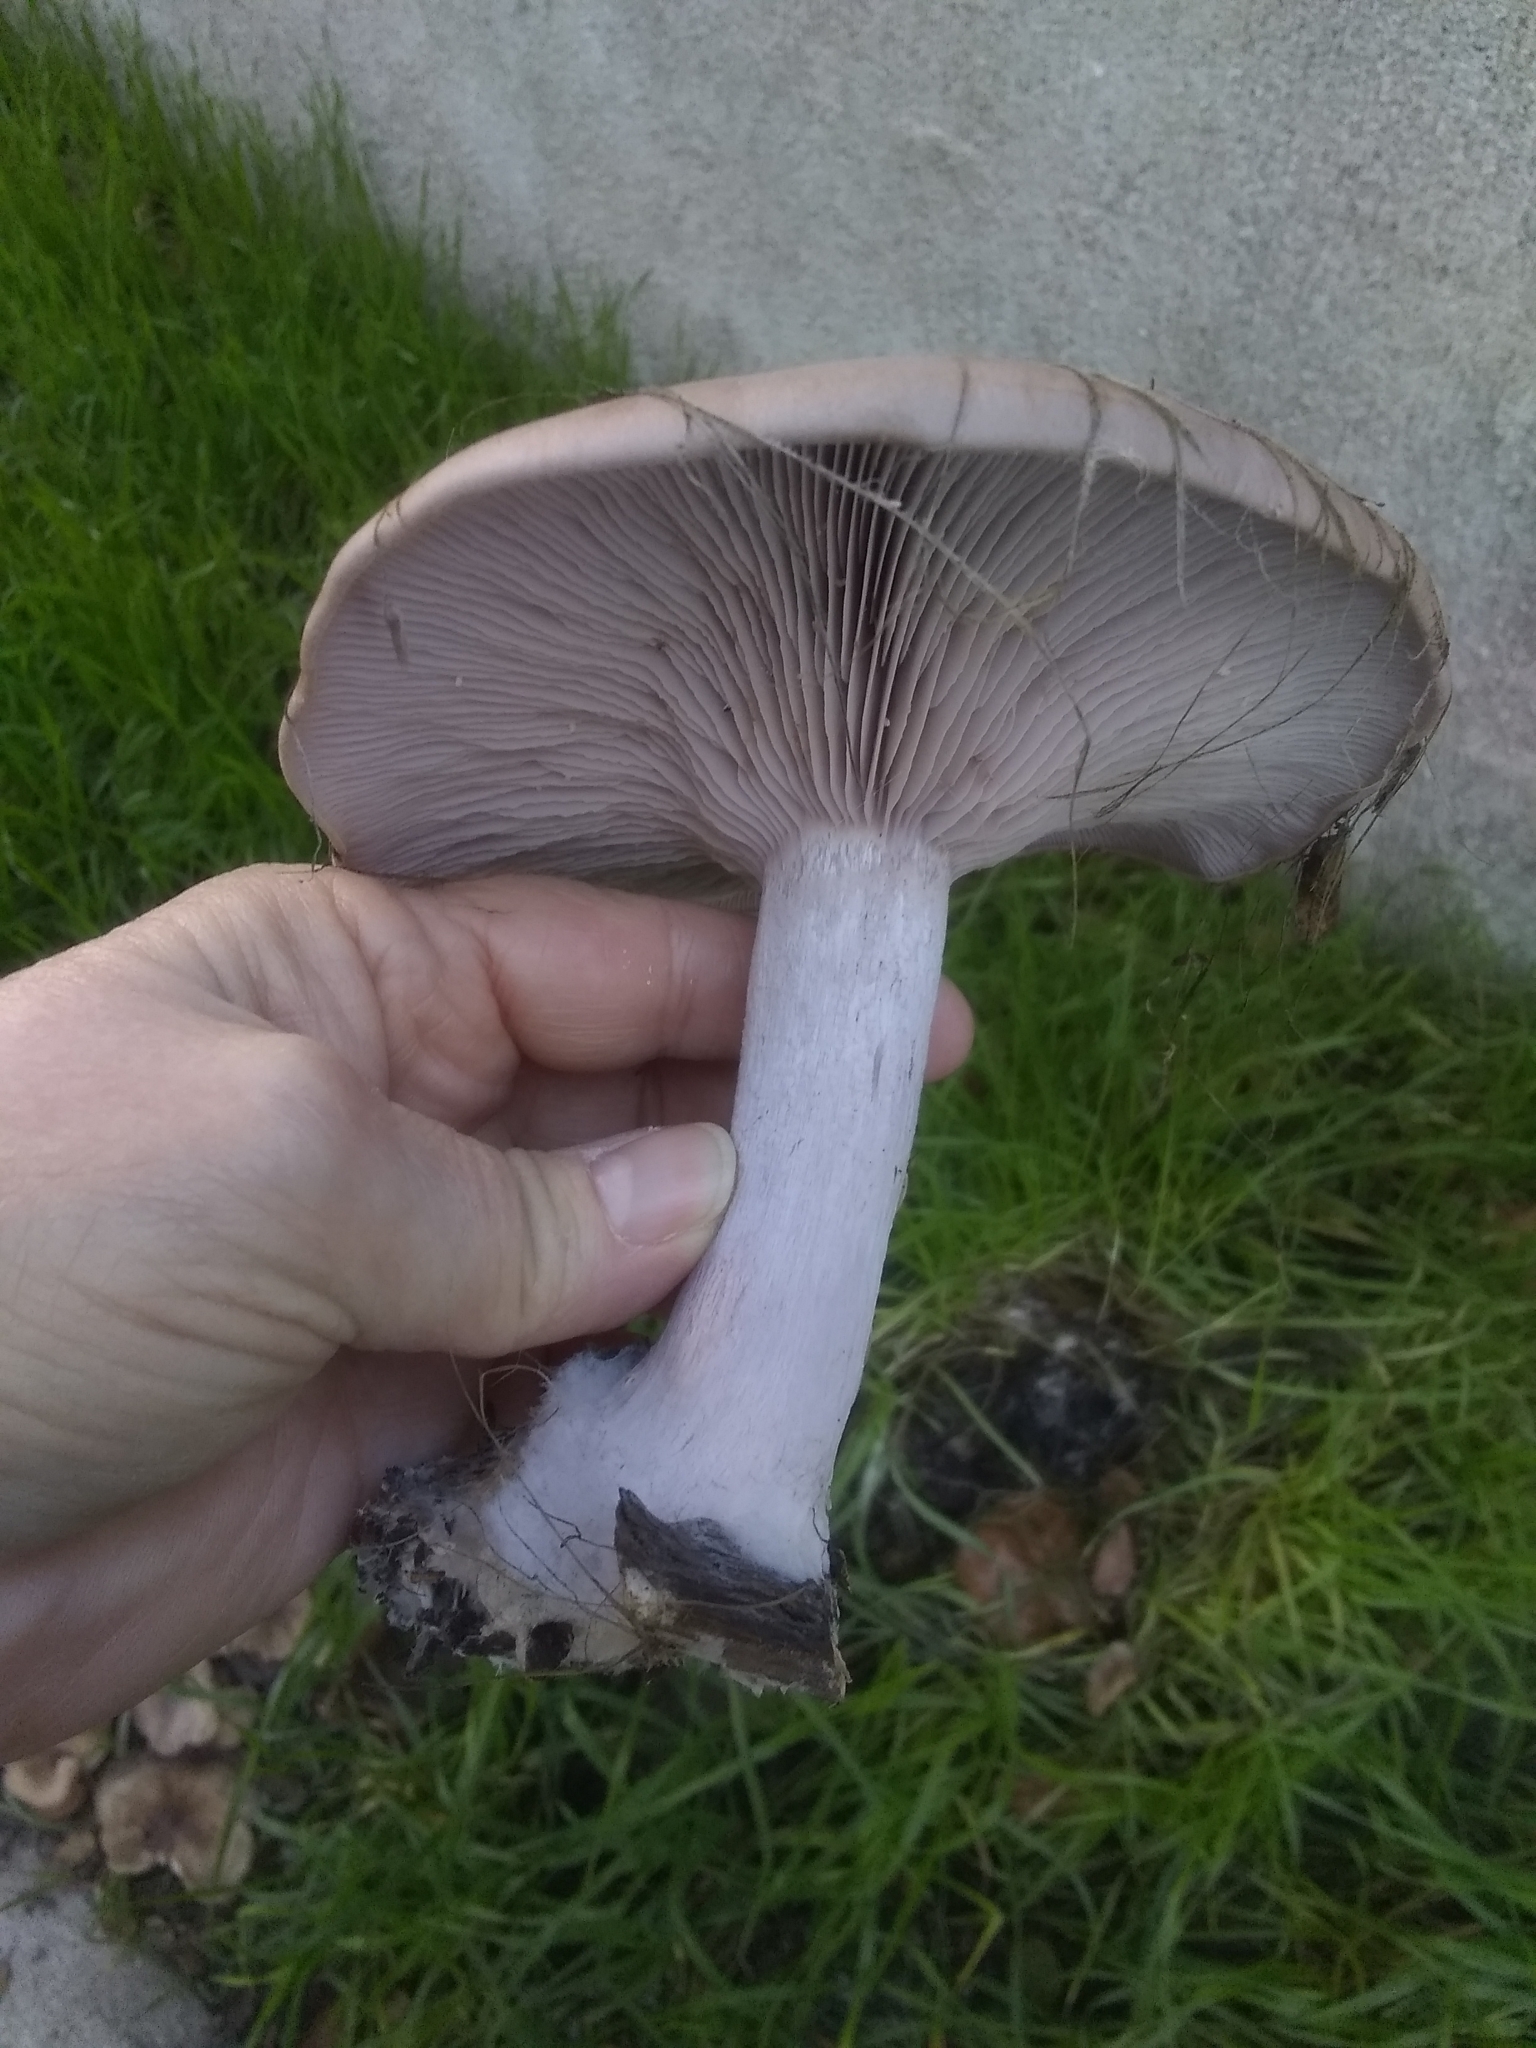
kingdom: Fungi
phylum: Basidiomycota
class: Agaricomycetes
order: Agaricales
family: Tricholomataceae
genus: Collybia
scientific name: Collybia
